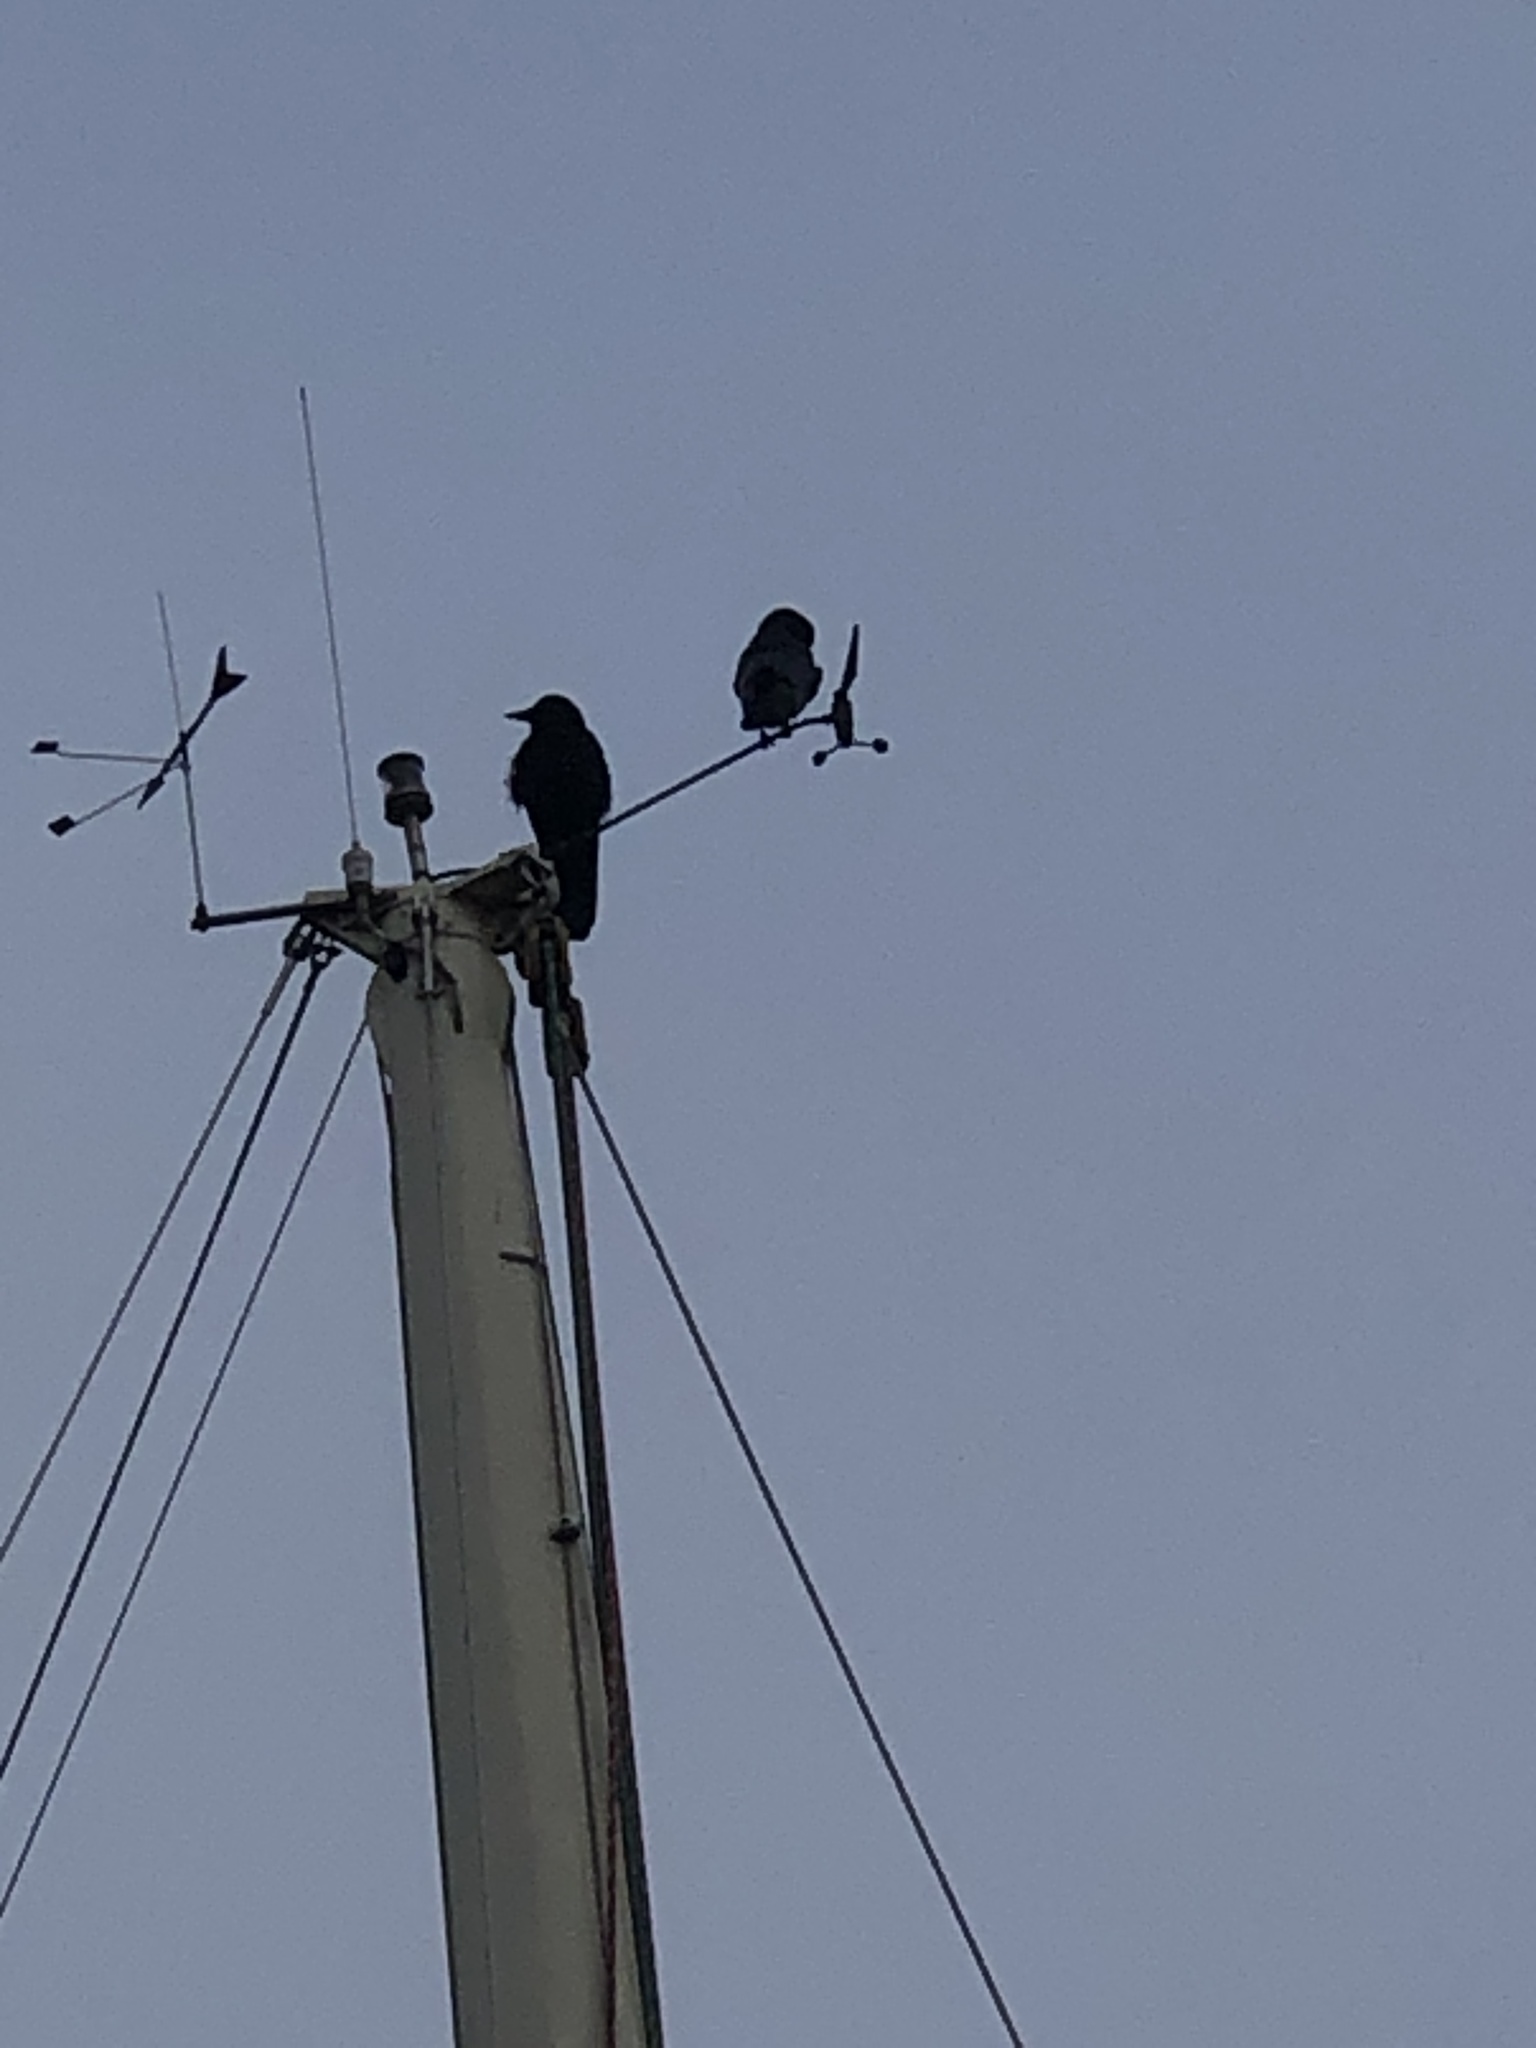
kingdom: Animalia
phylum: Chordata
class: Aves
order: Passeriformes
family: Corvidae
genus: Corvus
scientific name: Corvus brachyrhynchos
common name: American crow
